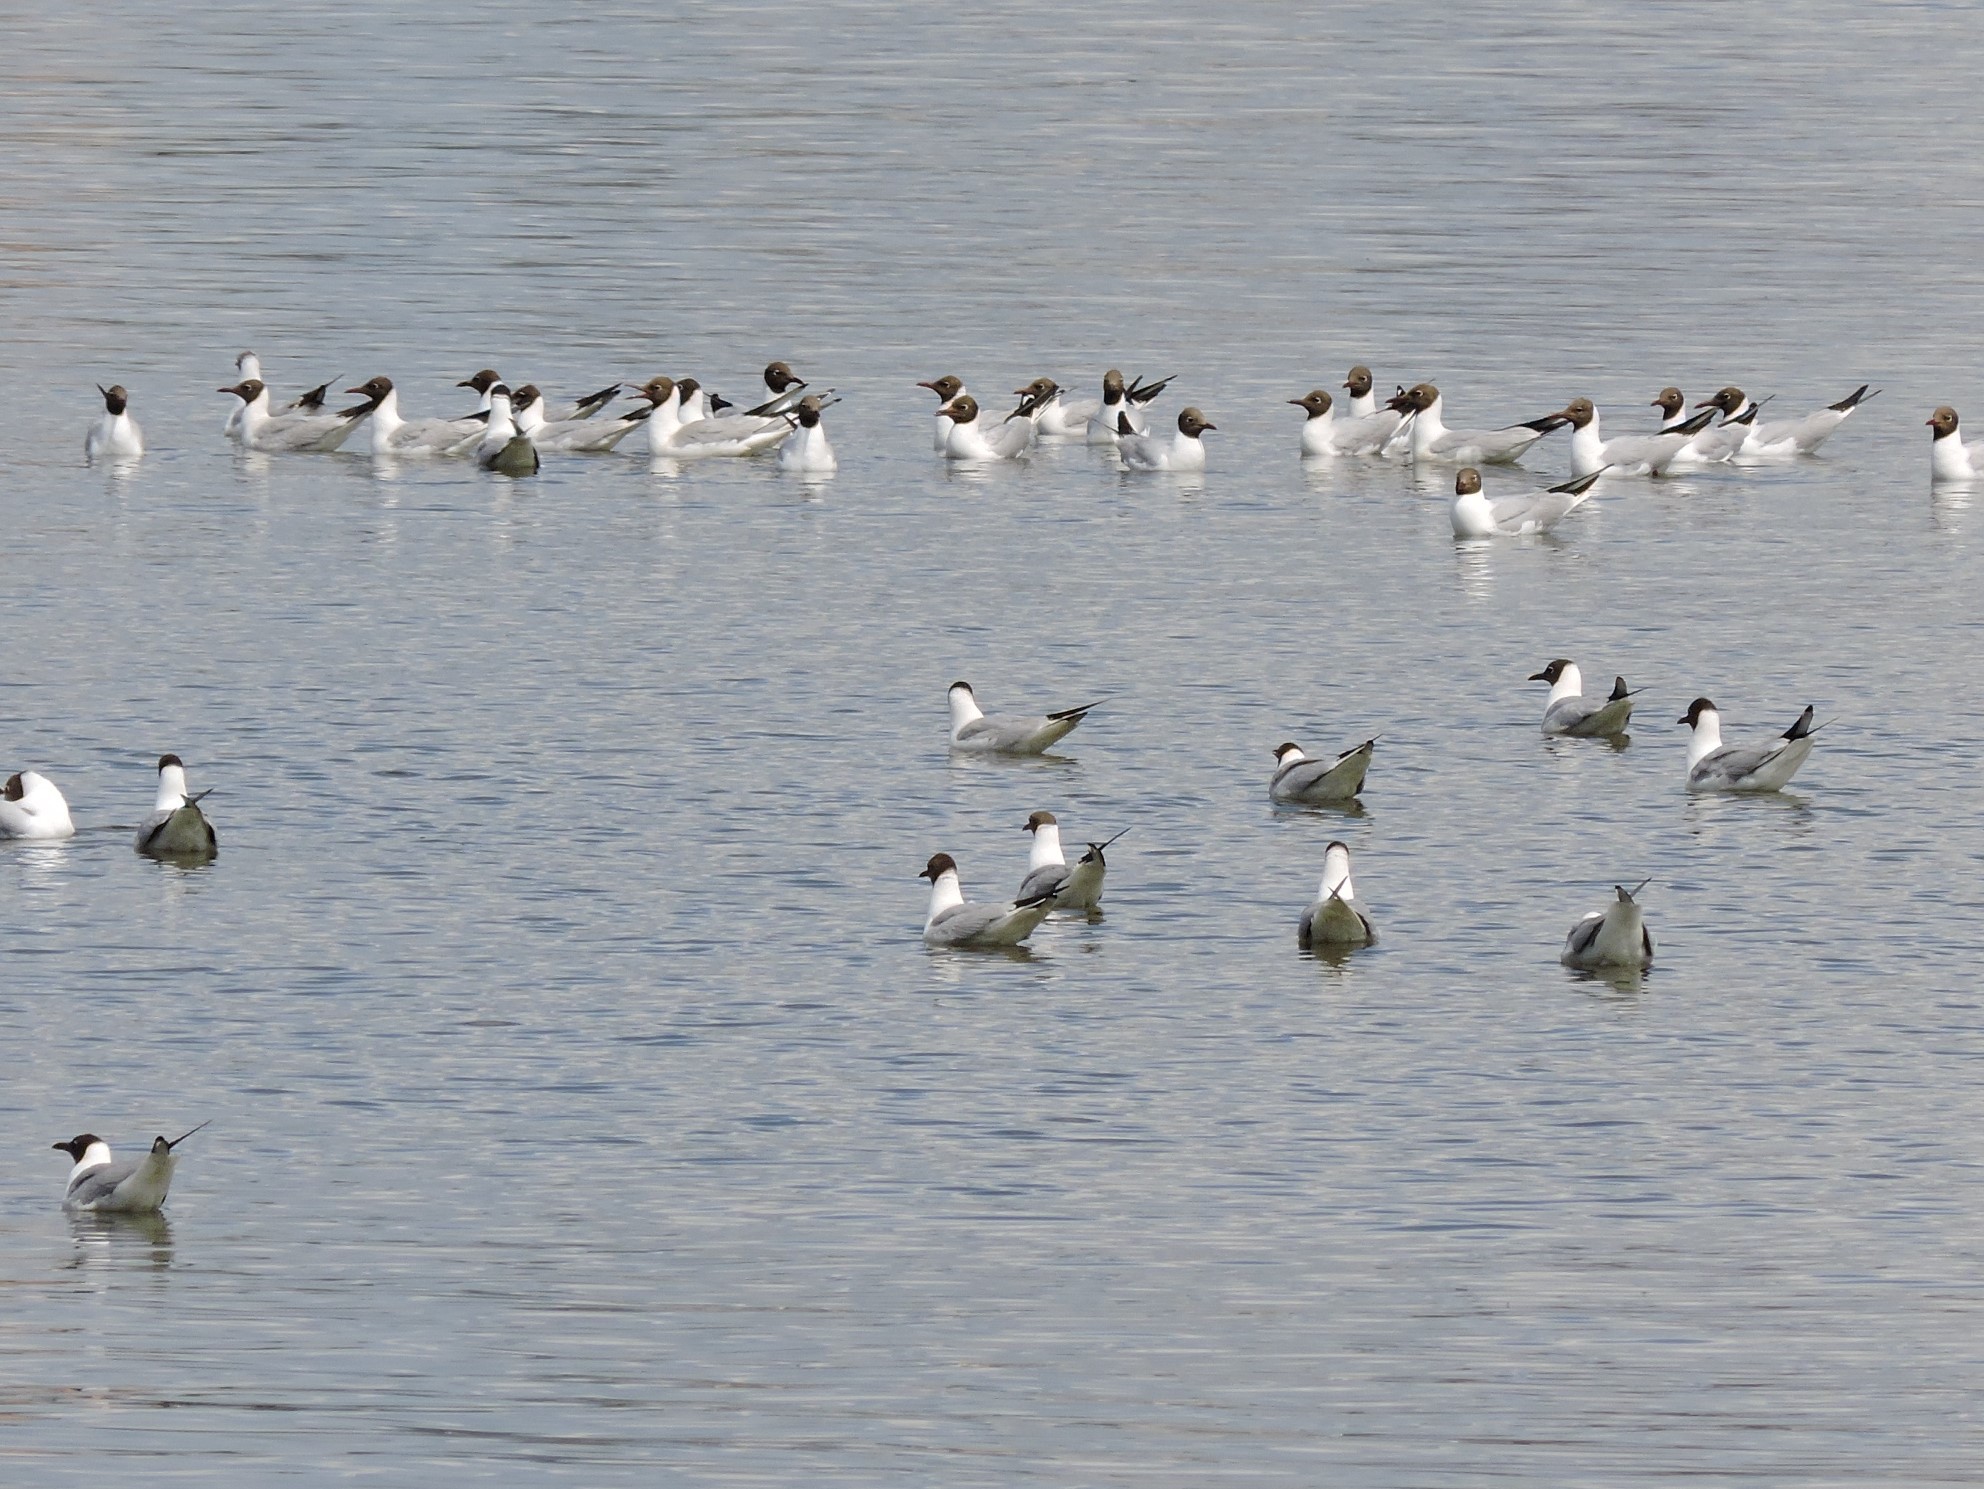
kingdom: Animalia
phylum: Chordata
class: Aves
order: Charadriiformes
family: Laridae
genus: Chroicocephalus
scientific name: Chroicocephalus ridibundus
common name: Black-headed gull
